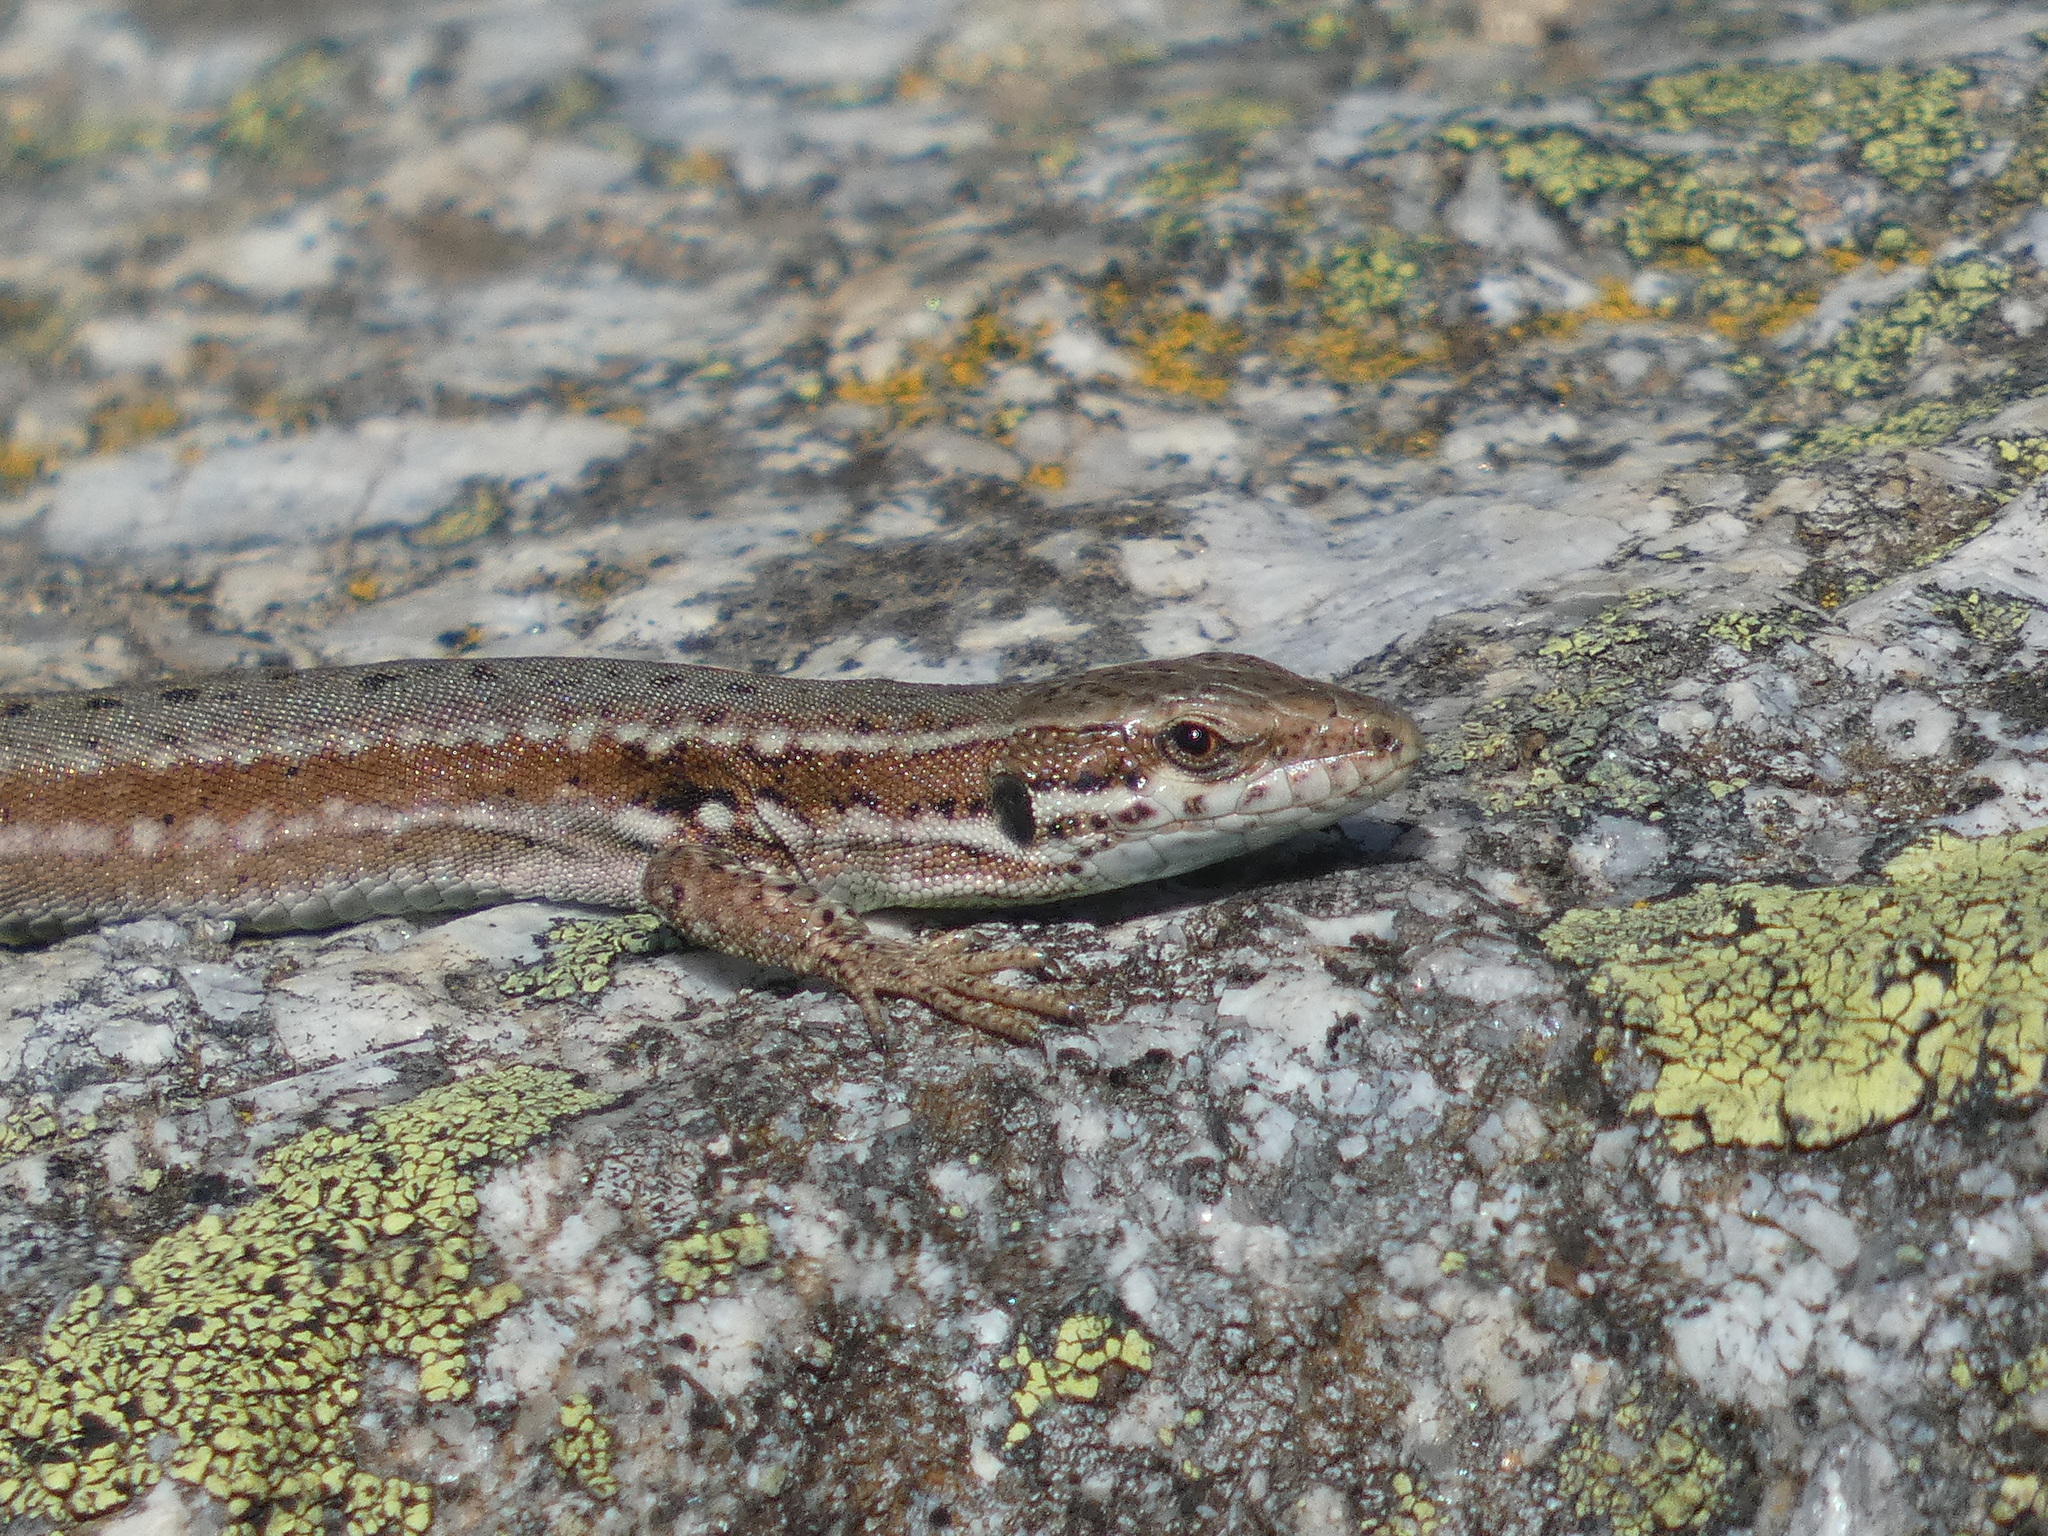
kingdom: Animalia
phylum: Chordata
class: Squamata
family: Lacertidae
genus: Podarcis
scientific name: Podarcis muralis
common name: Common wall lizard
